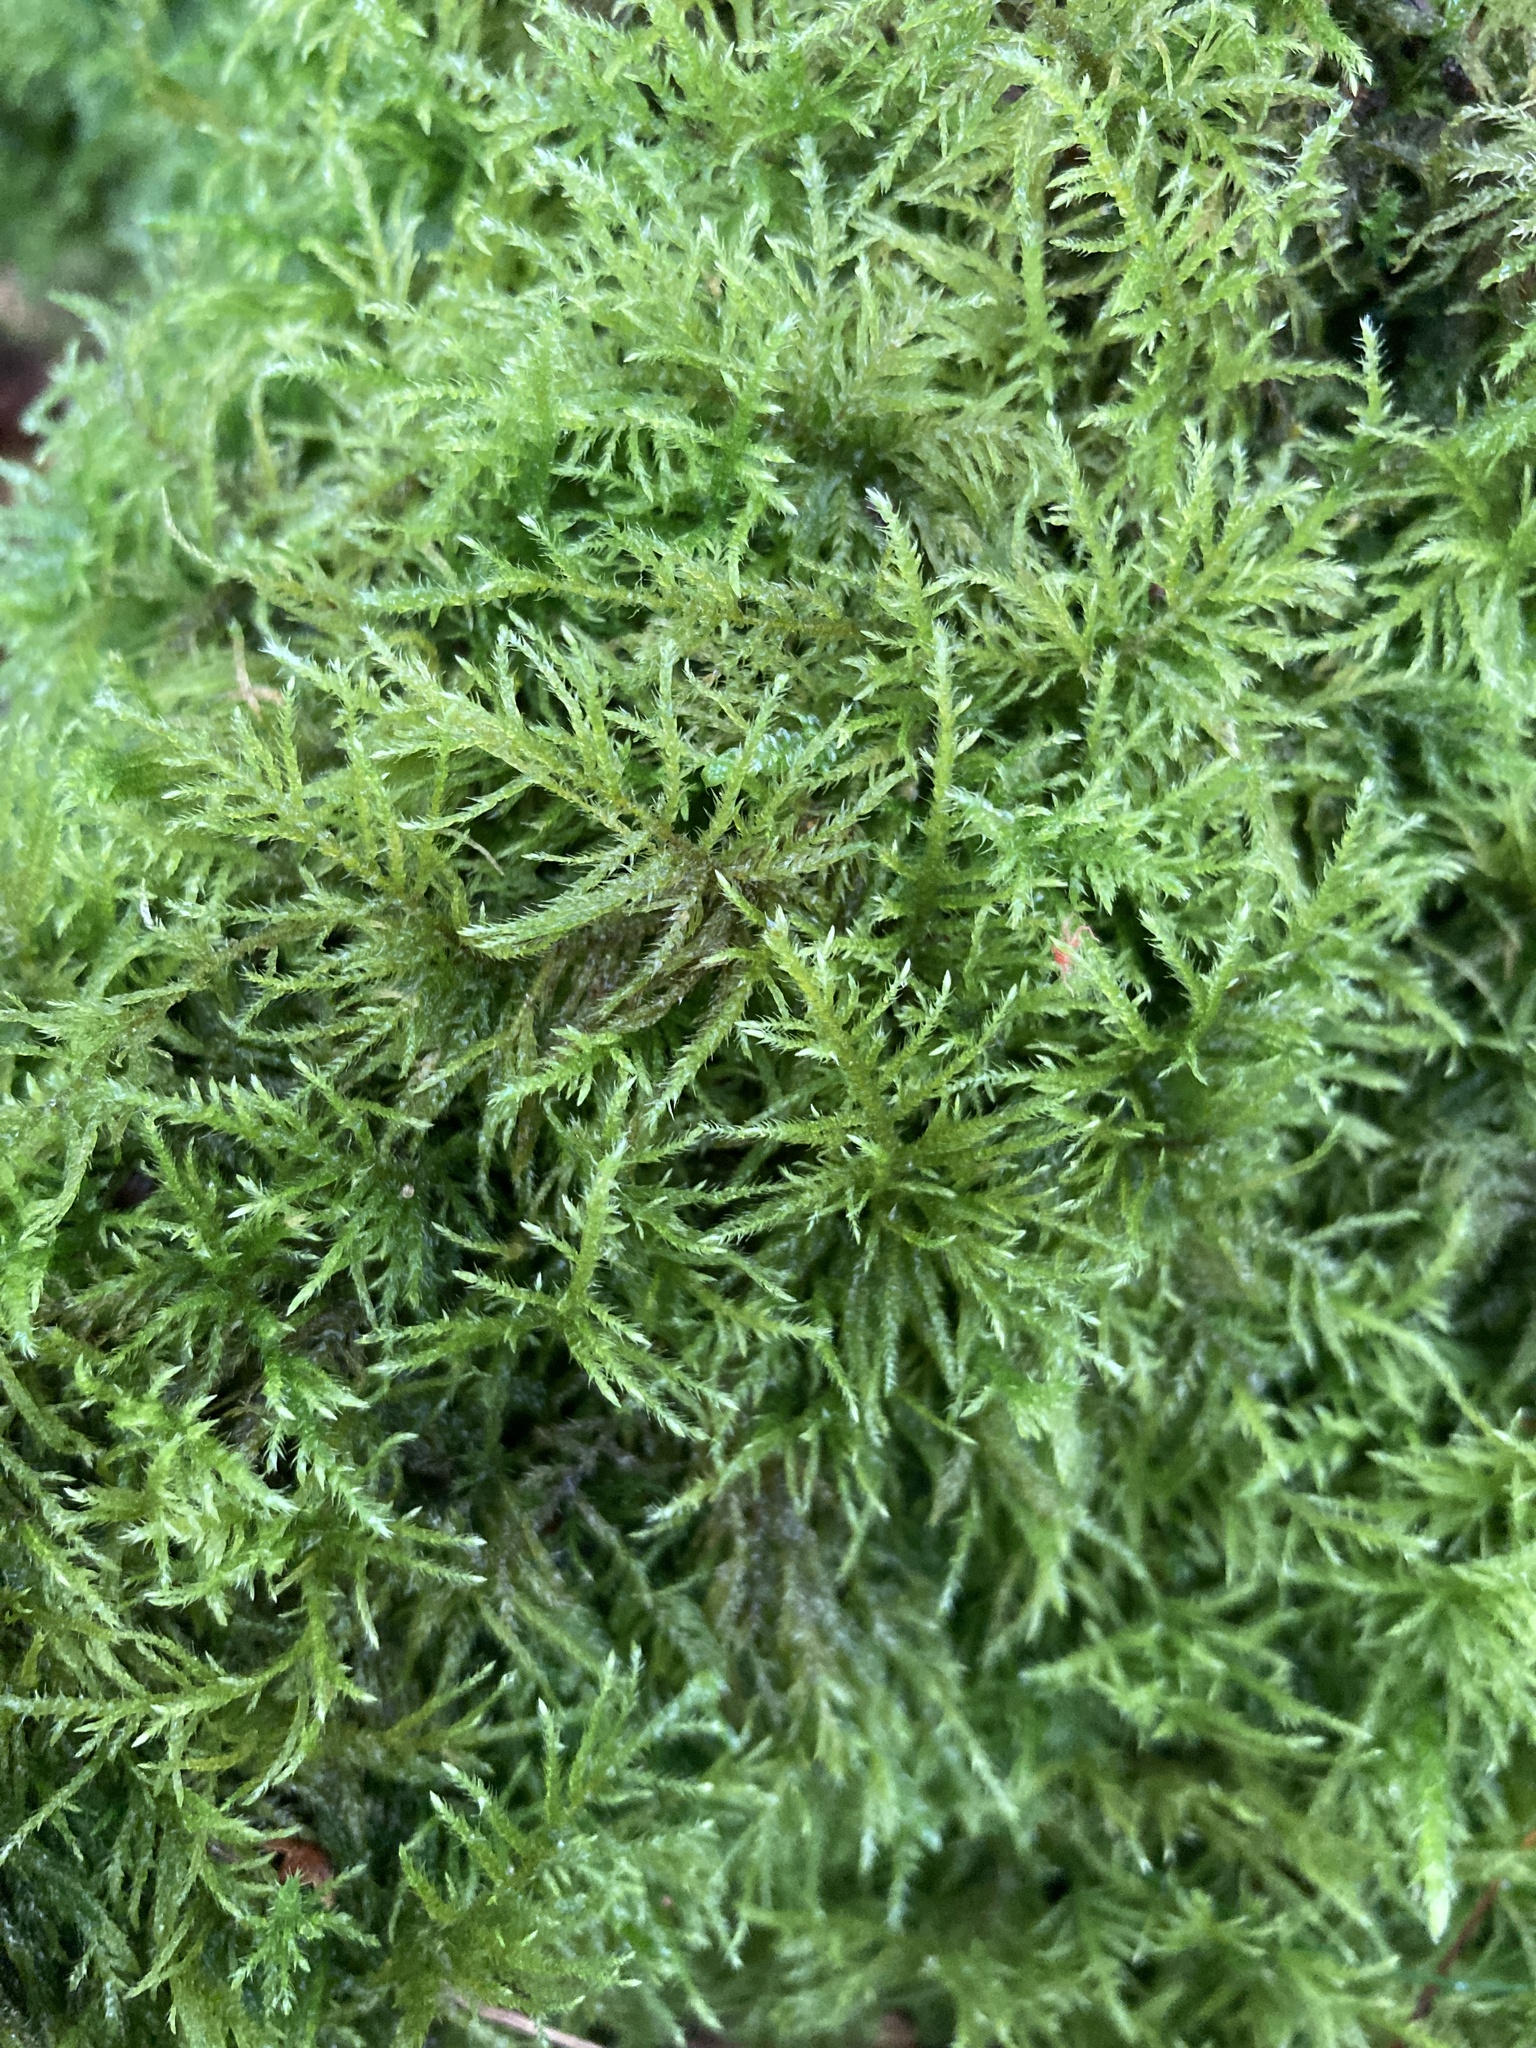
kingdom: Plantae
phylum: Bryophyta
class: Bryopsida
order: Hypnales
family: Brachytheciaceae
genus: Kindbergia
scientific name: Kindbergia praelonga
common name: Slender beaked moss
